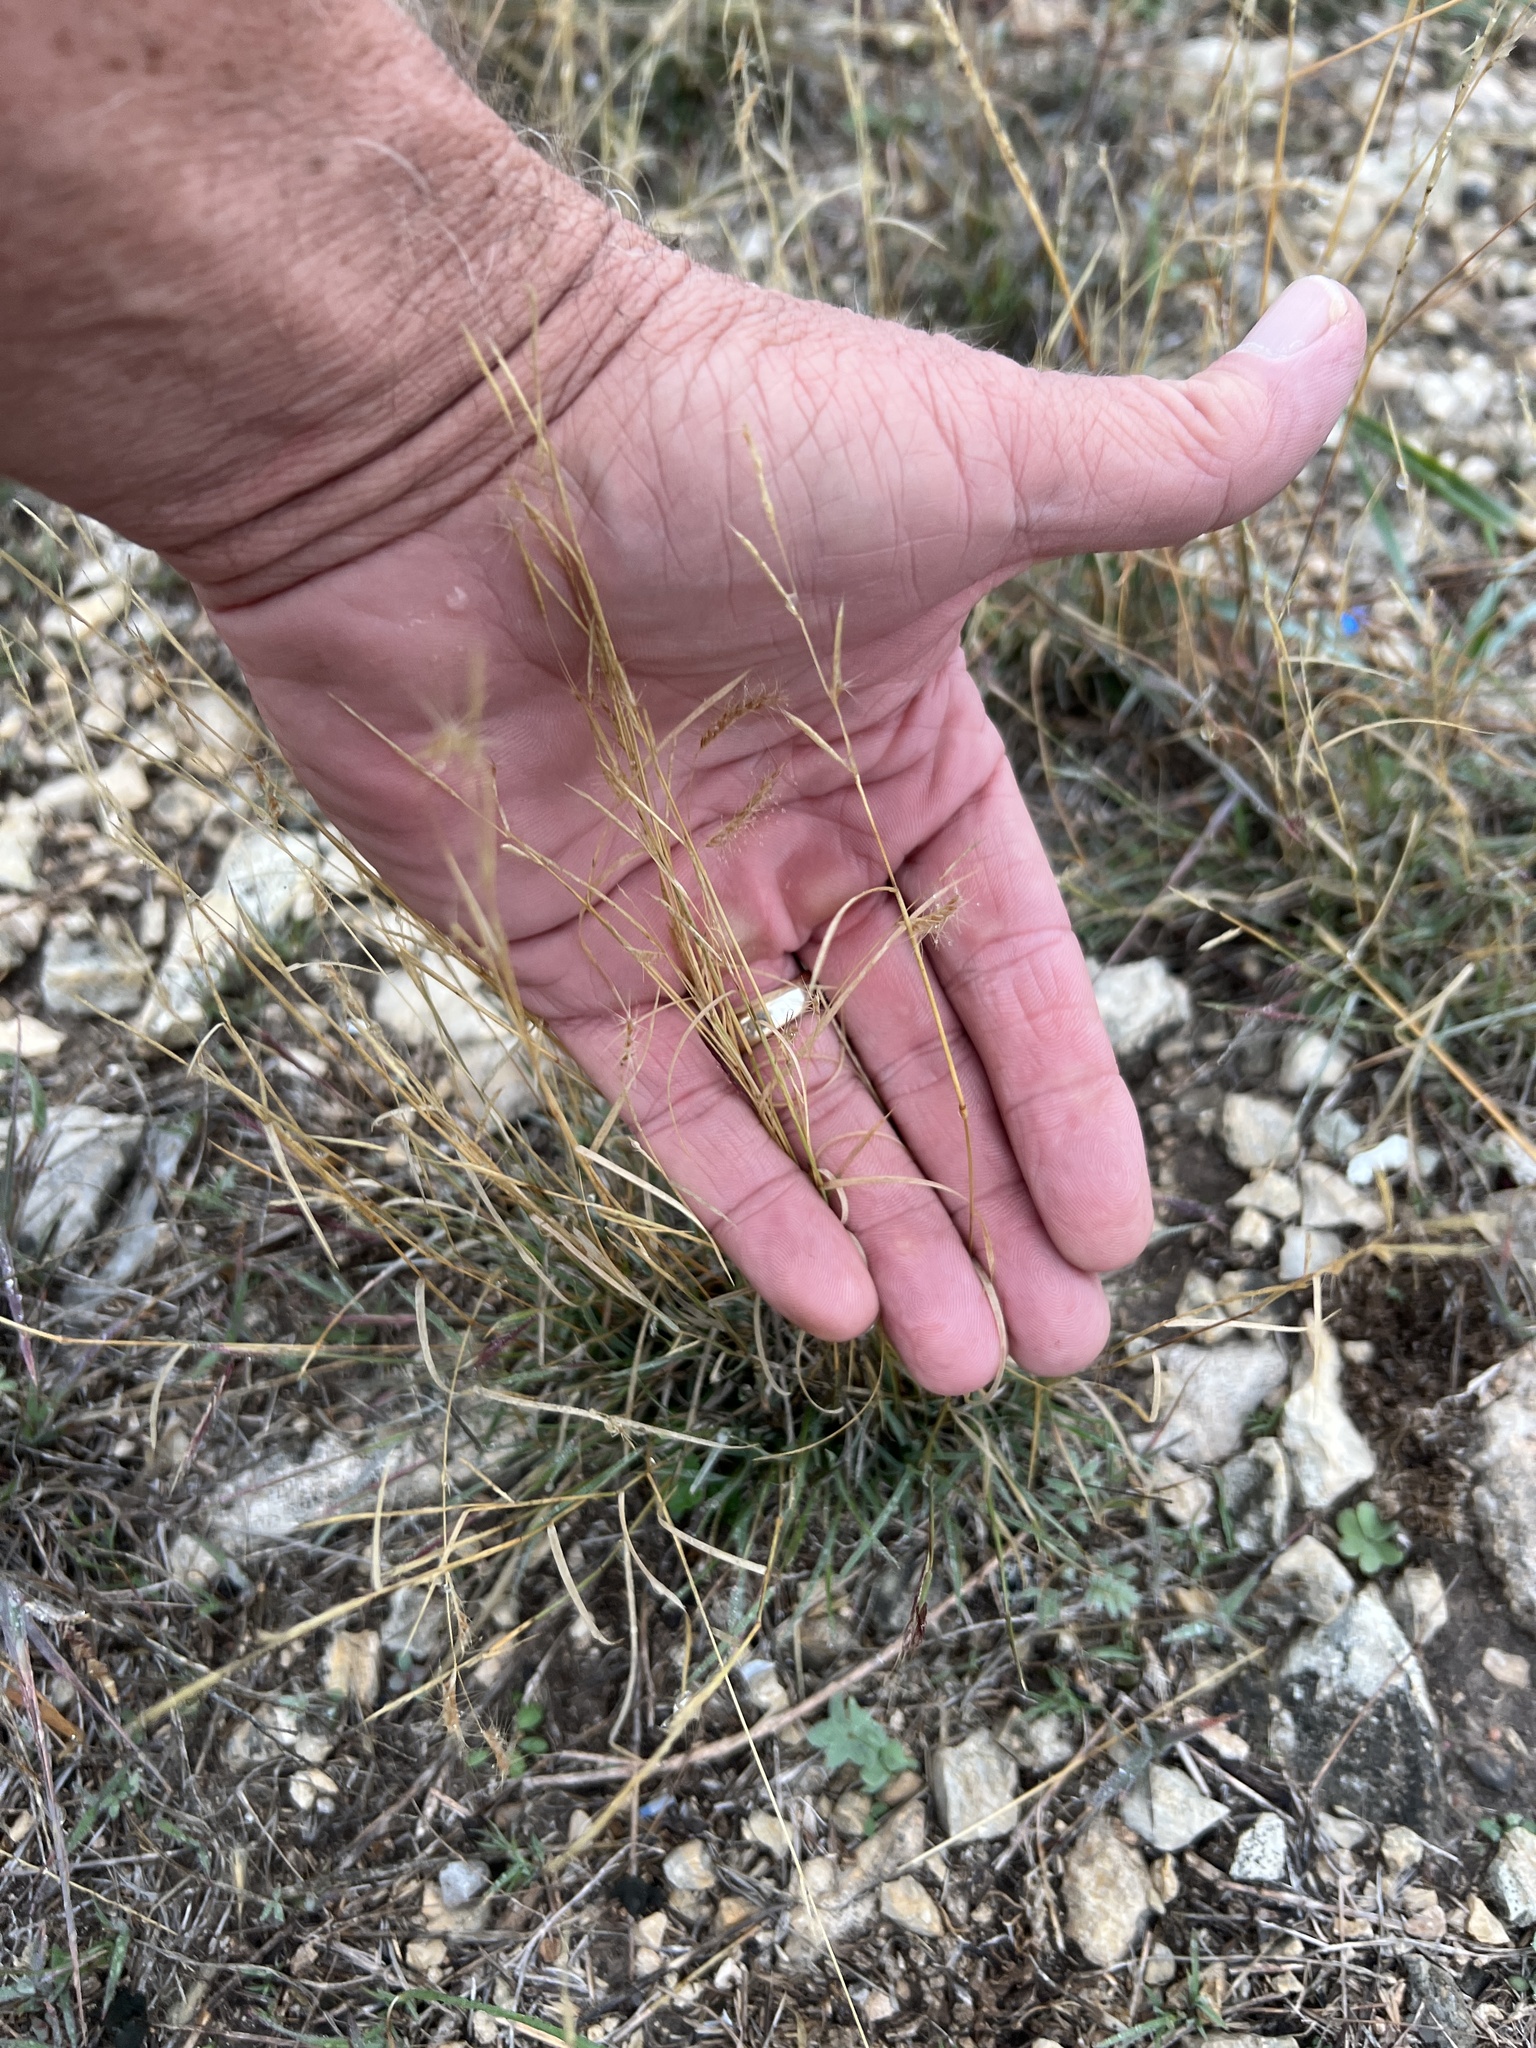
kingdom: Plantae
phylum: Tracheophyta
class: Liliopsida
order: Poales
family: Poaceae
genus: Bouteloua
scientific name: Bouteloua trifida
